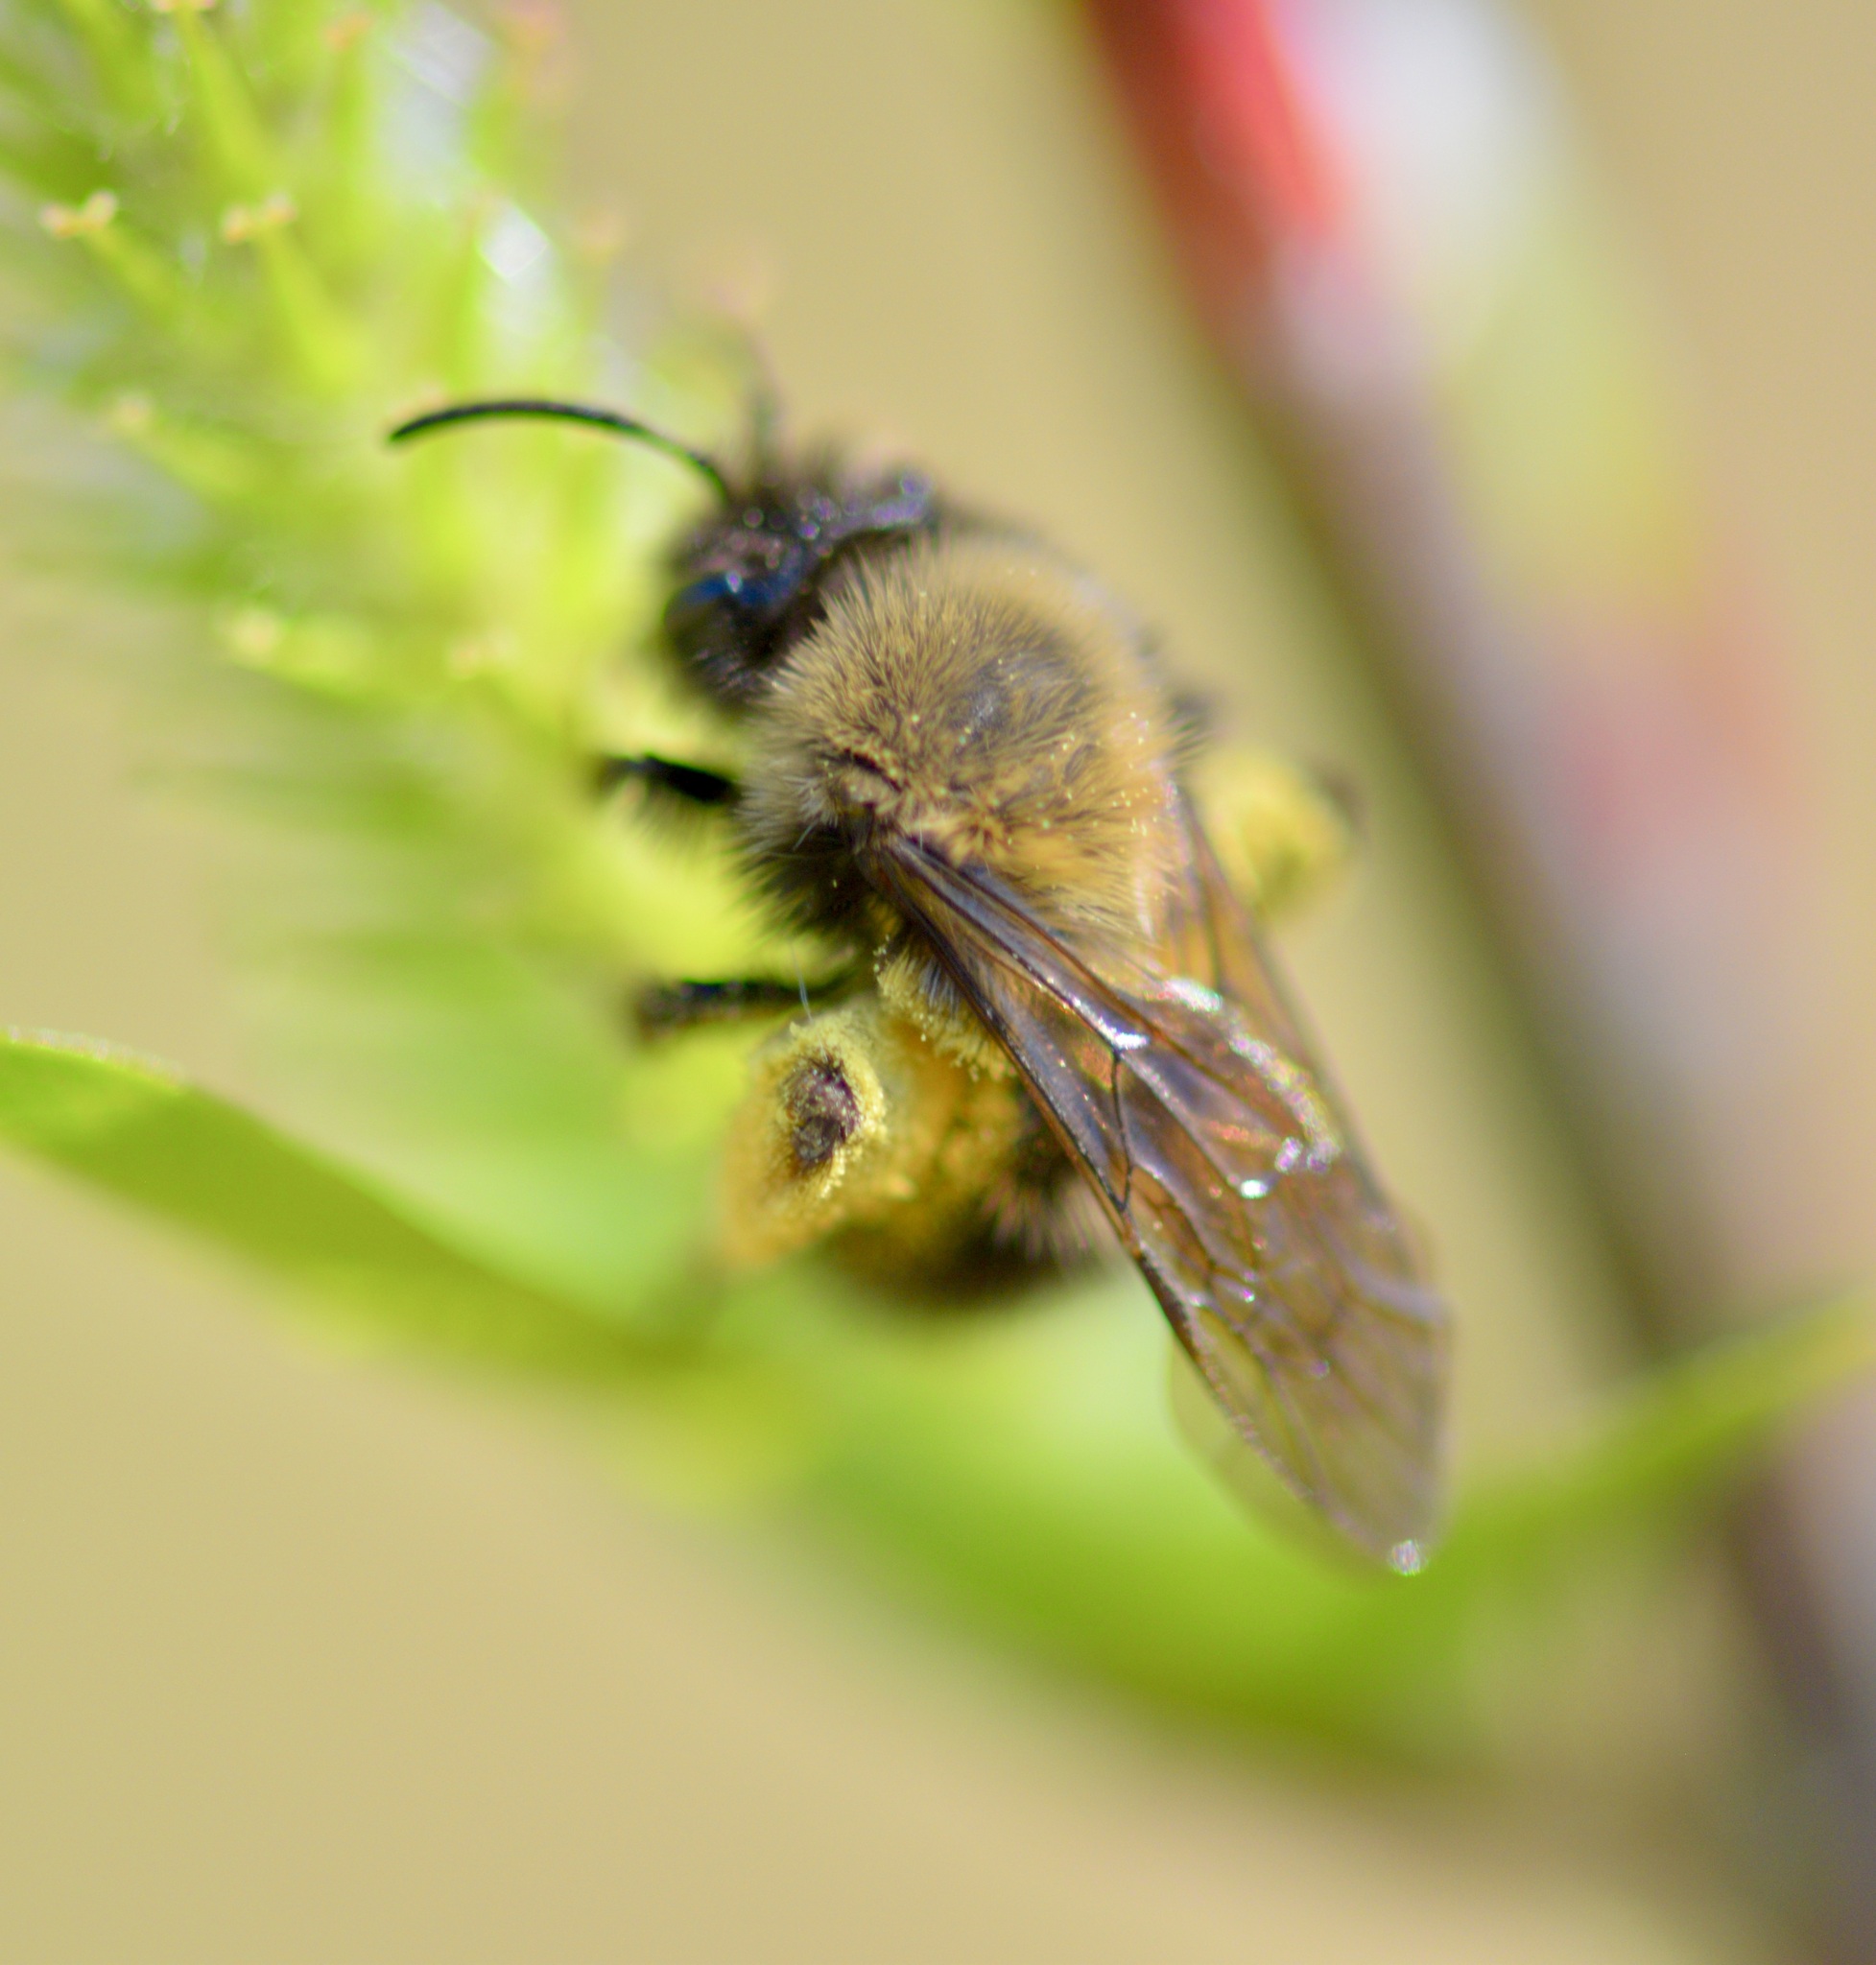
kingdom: Animalia
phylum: Arthropoda
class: Insecta
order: Hymenoptera
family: Andrenidae
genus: Andrena
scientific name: Andrena clarkella
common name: Clarke's mining bee
